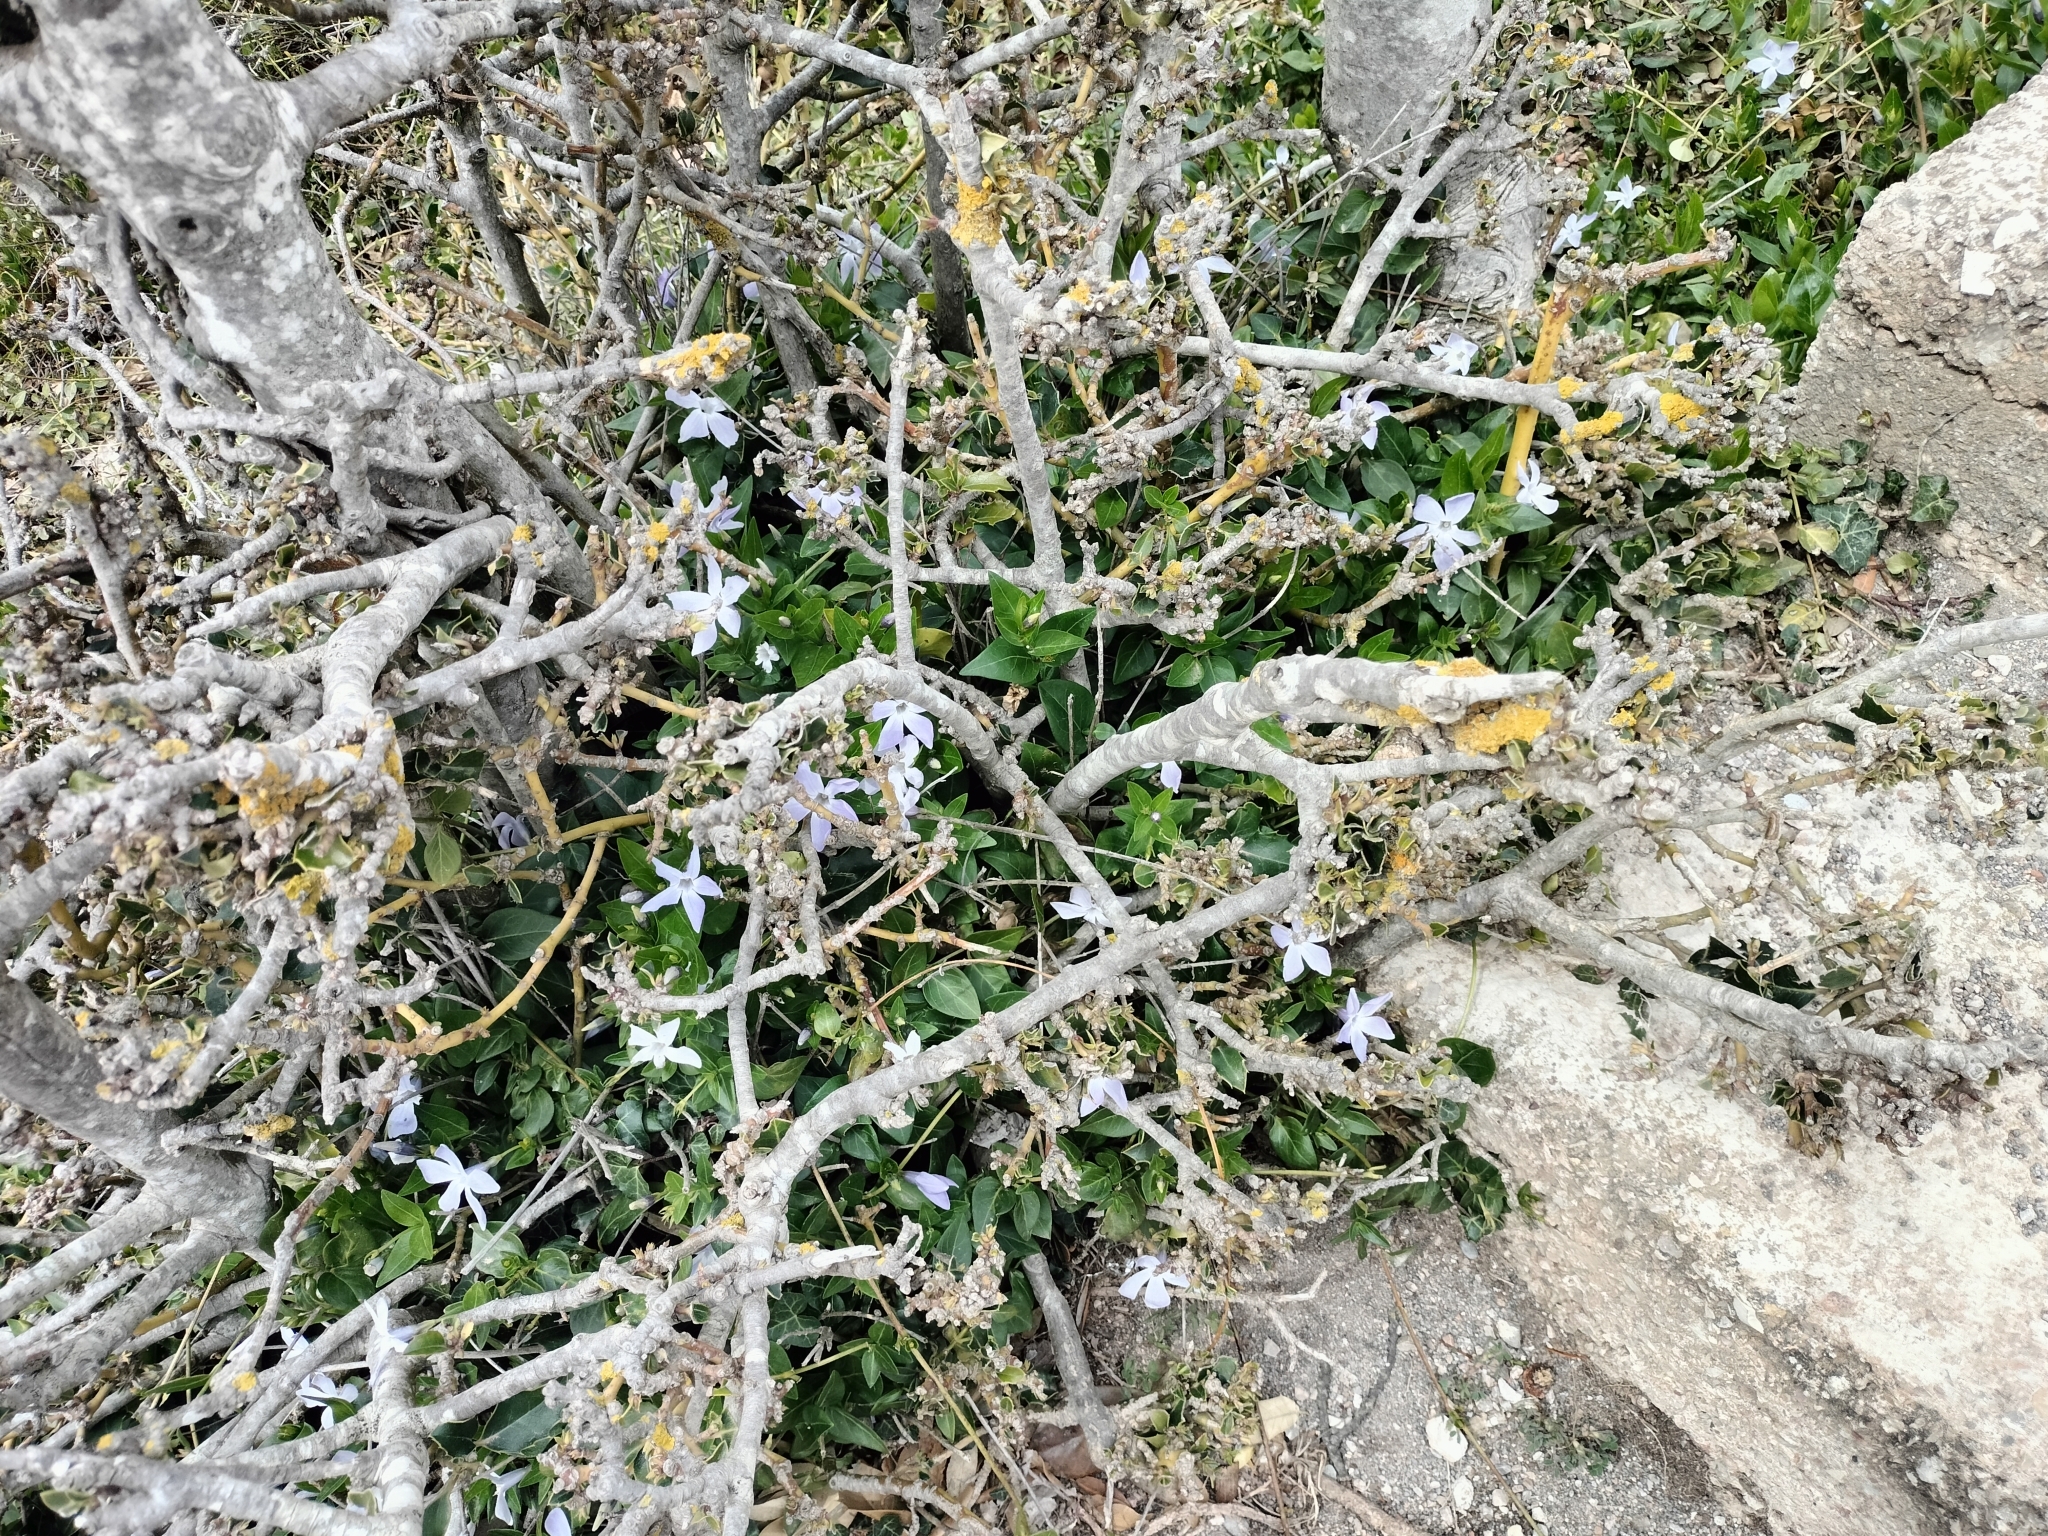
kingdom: Plantae
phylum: Tracheophyta
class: Magnoliopsida
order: Gentianales
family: Apocynaceae
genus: Vinca
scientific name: Vinca difformis
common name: Intermediate periwinkle
